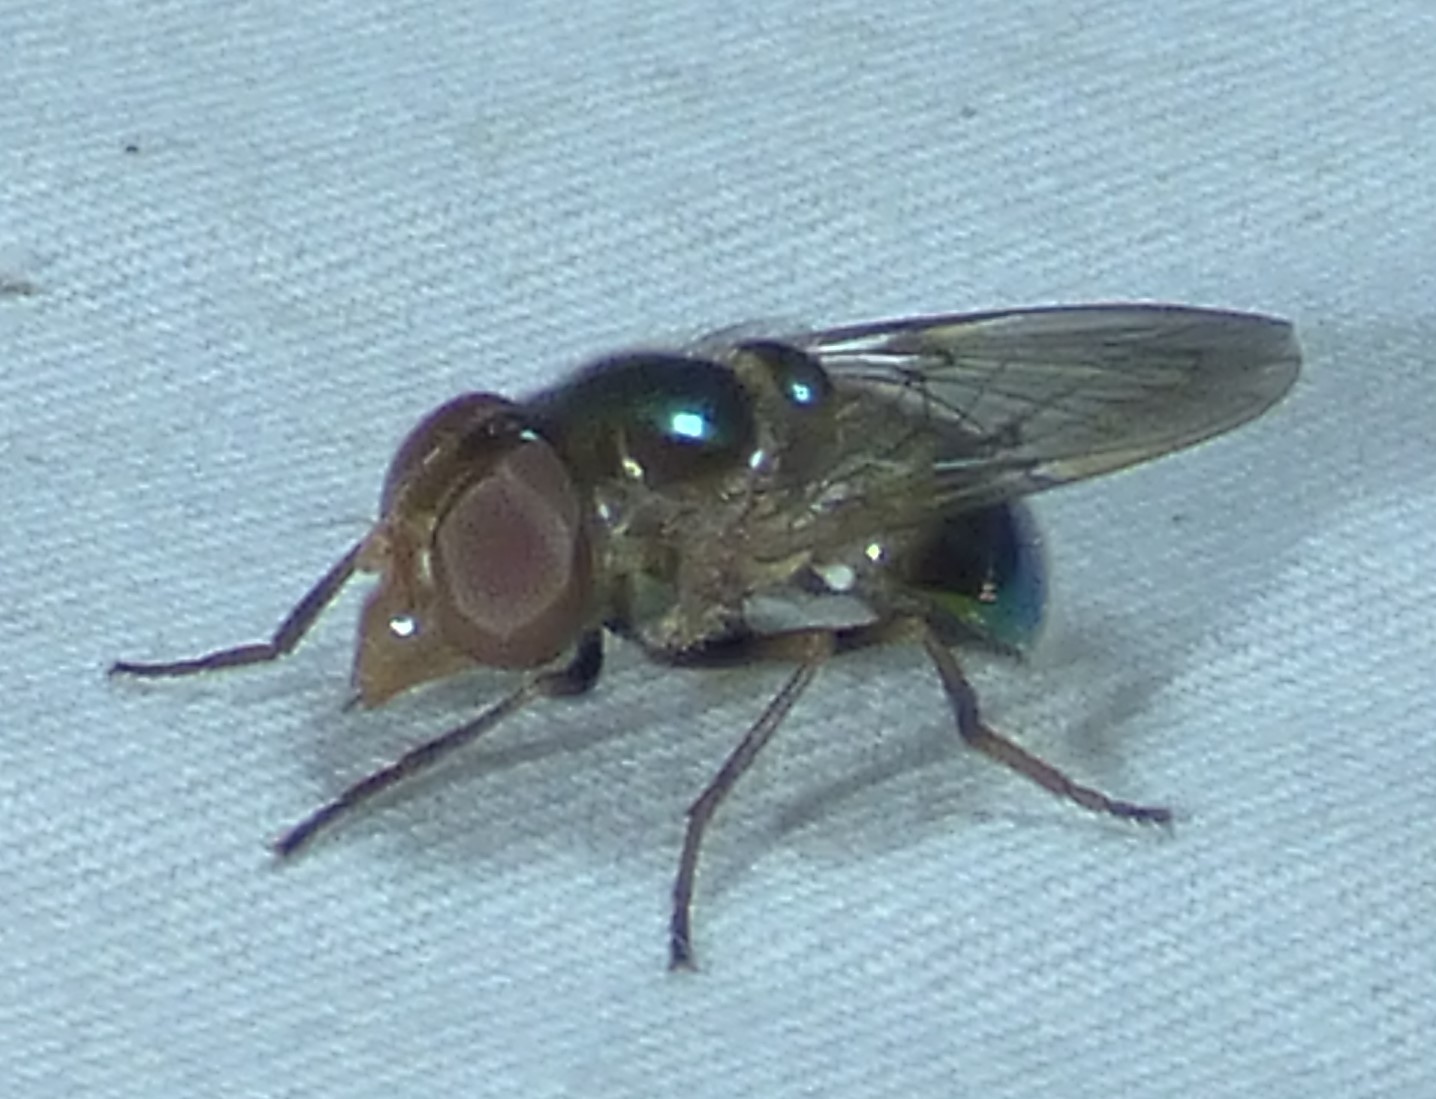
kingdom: Animalia
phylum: Arthropoda
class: Insecta
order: Diptera
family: Syrphidae
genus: Copestylum
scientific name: Copestylum vesicularium
